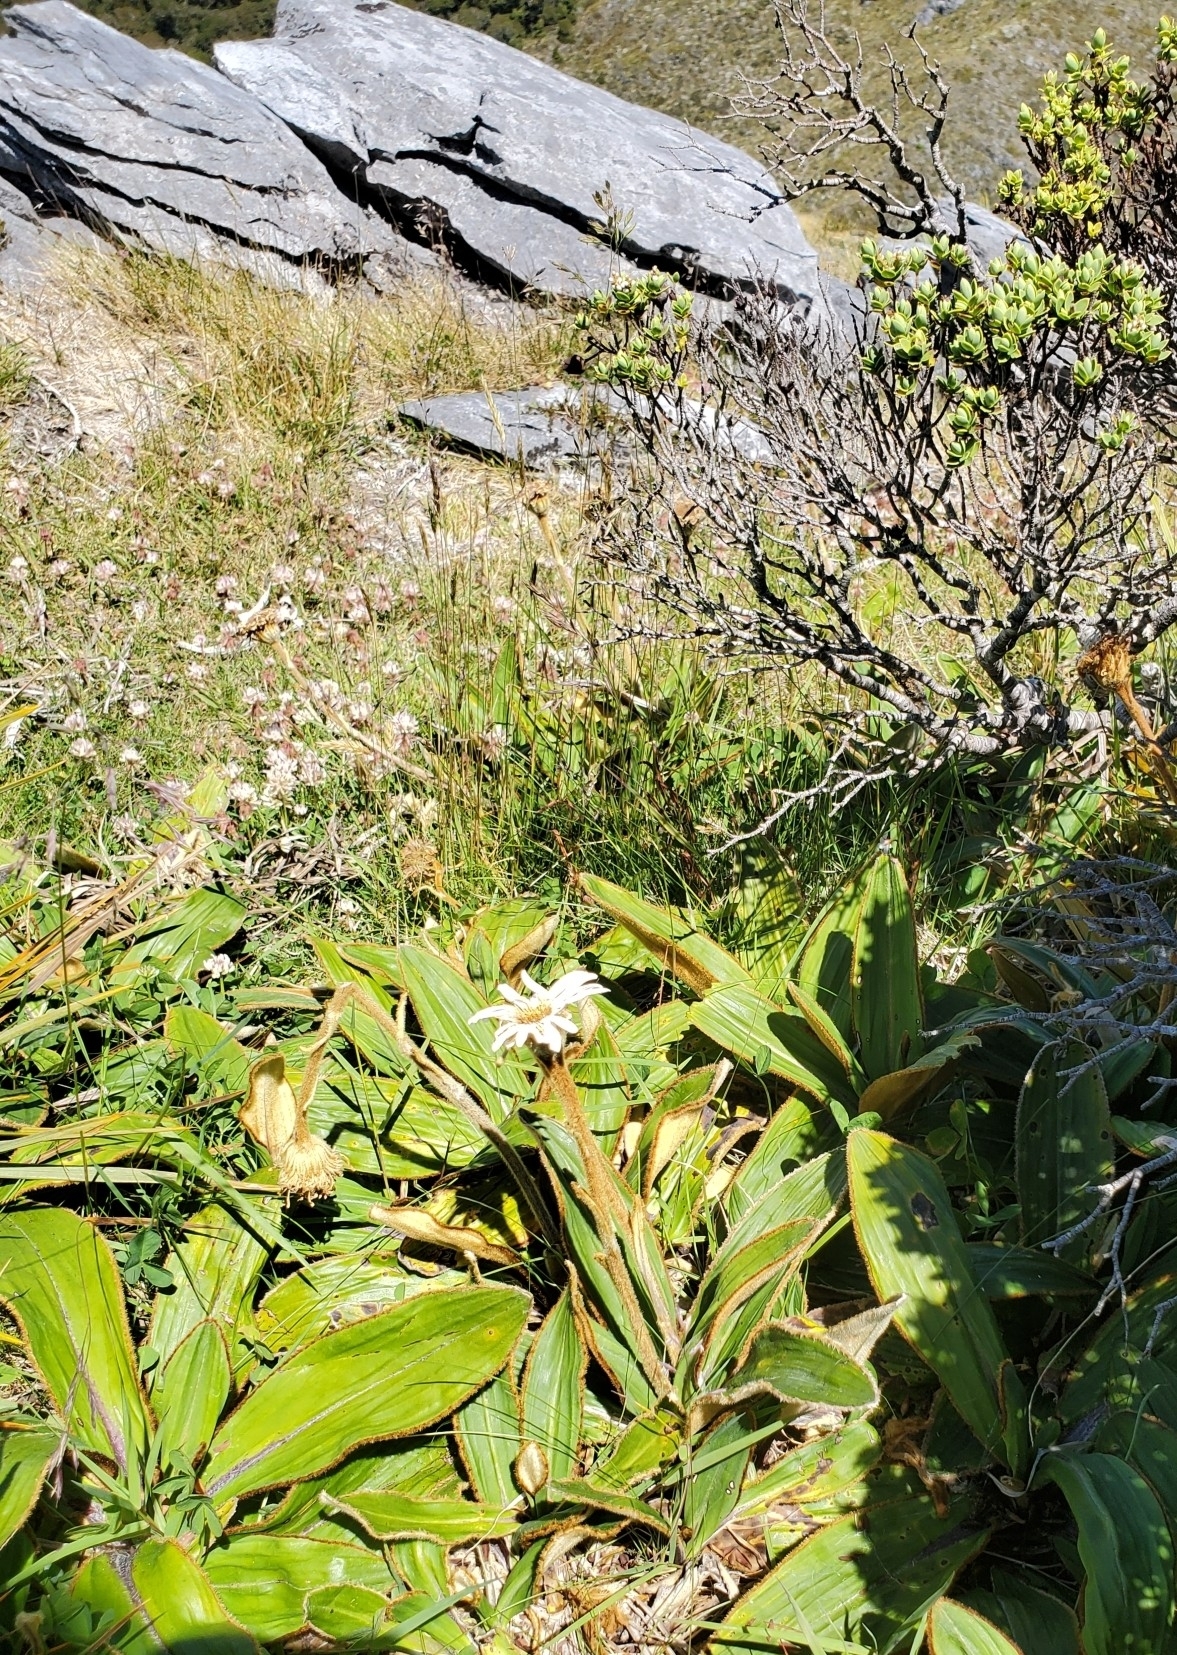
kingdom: Plantae
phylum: Tracheophyta
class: Magnoliopsida
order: Asterales
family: Asteraceae
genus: Celmisia
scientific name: Celmisia traversii
